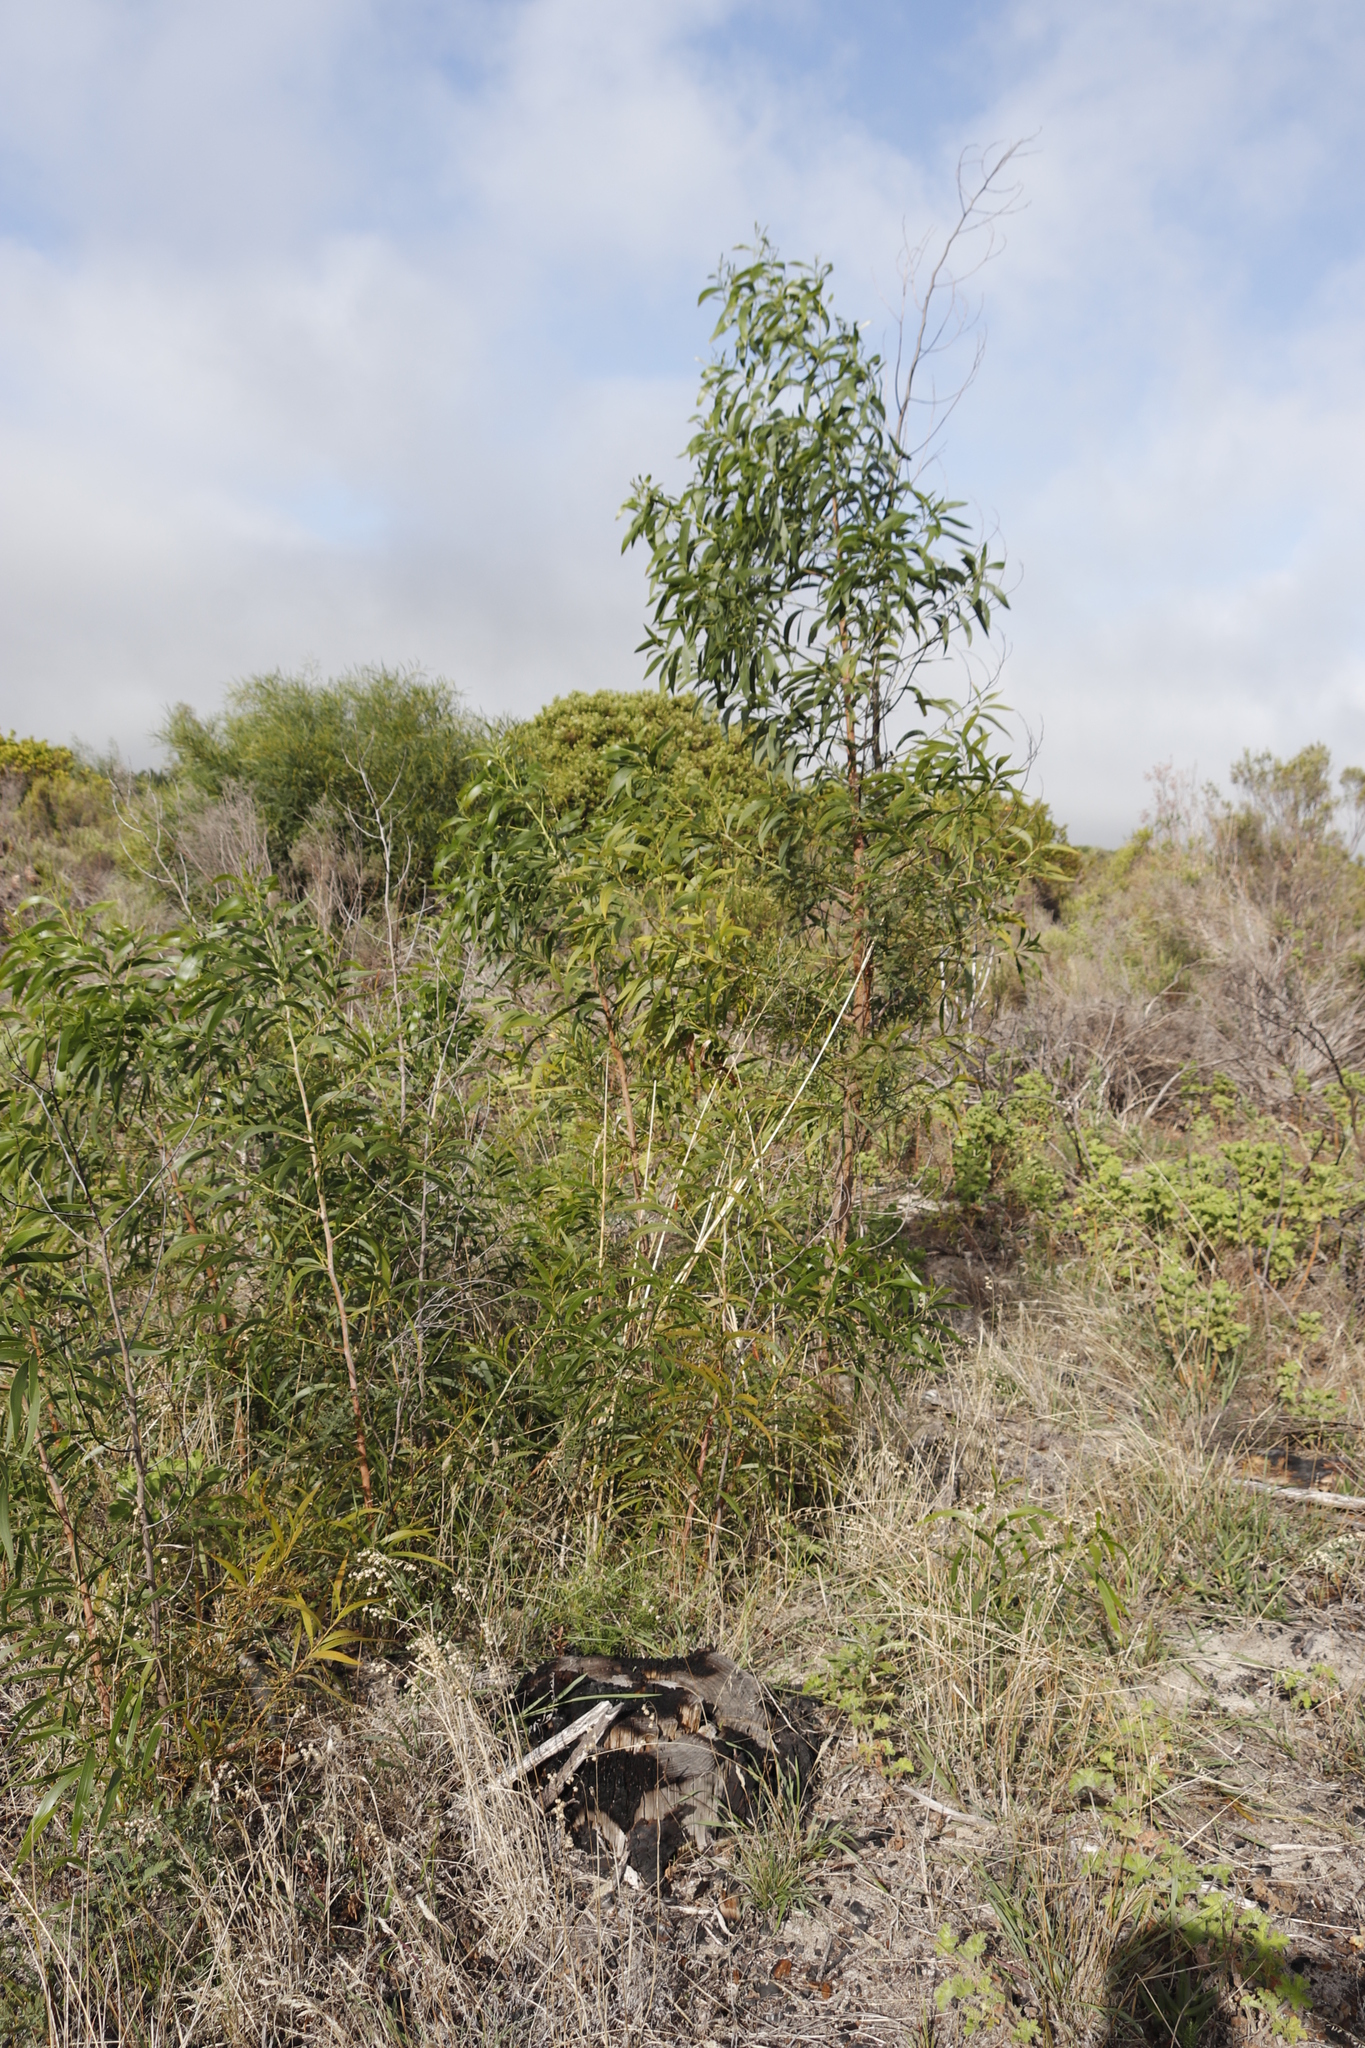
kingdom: Plantae
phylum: Tracheophyta
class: Magnoliopsida
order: Fabales
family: Fabaceae
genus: Acacia
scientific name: Acacia implexa
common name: Black wattle
